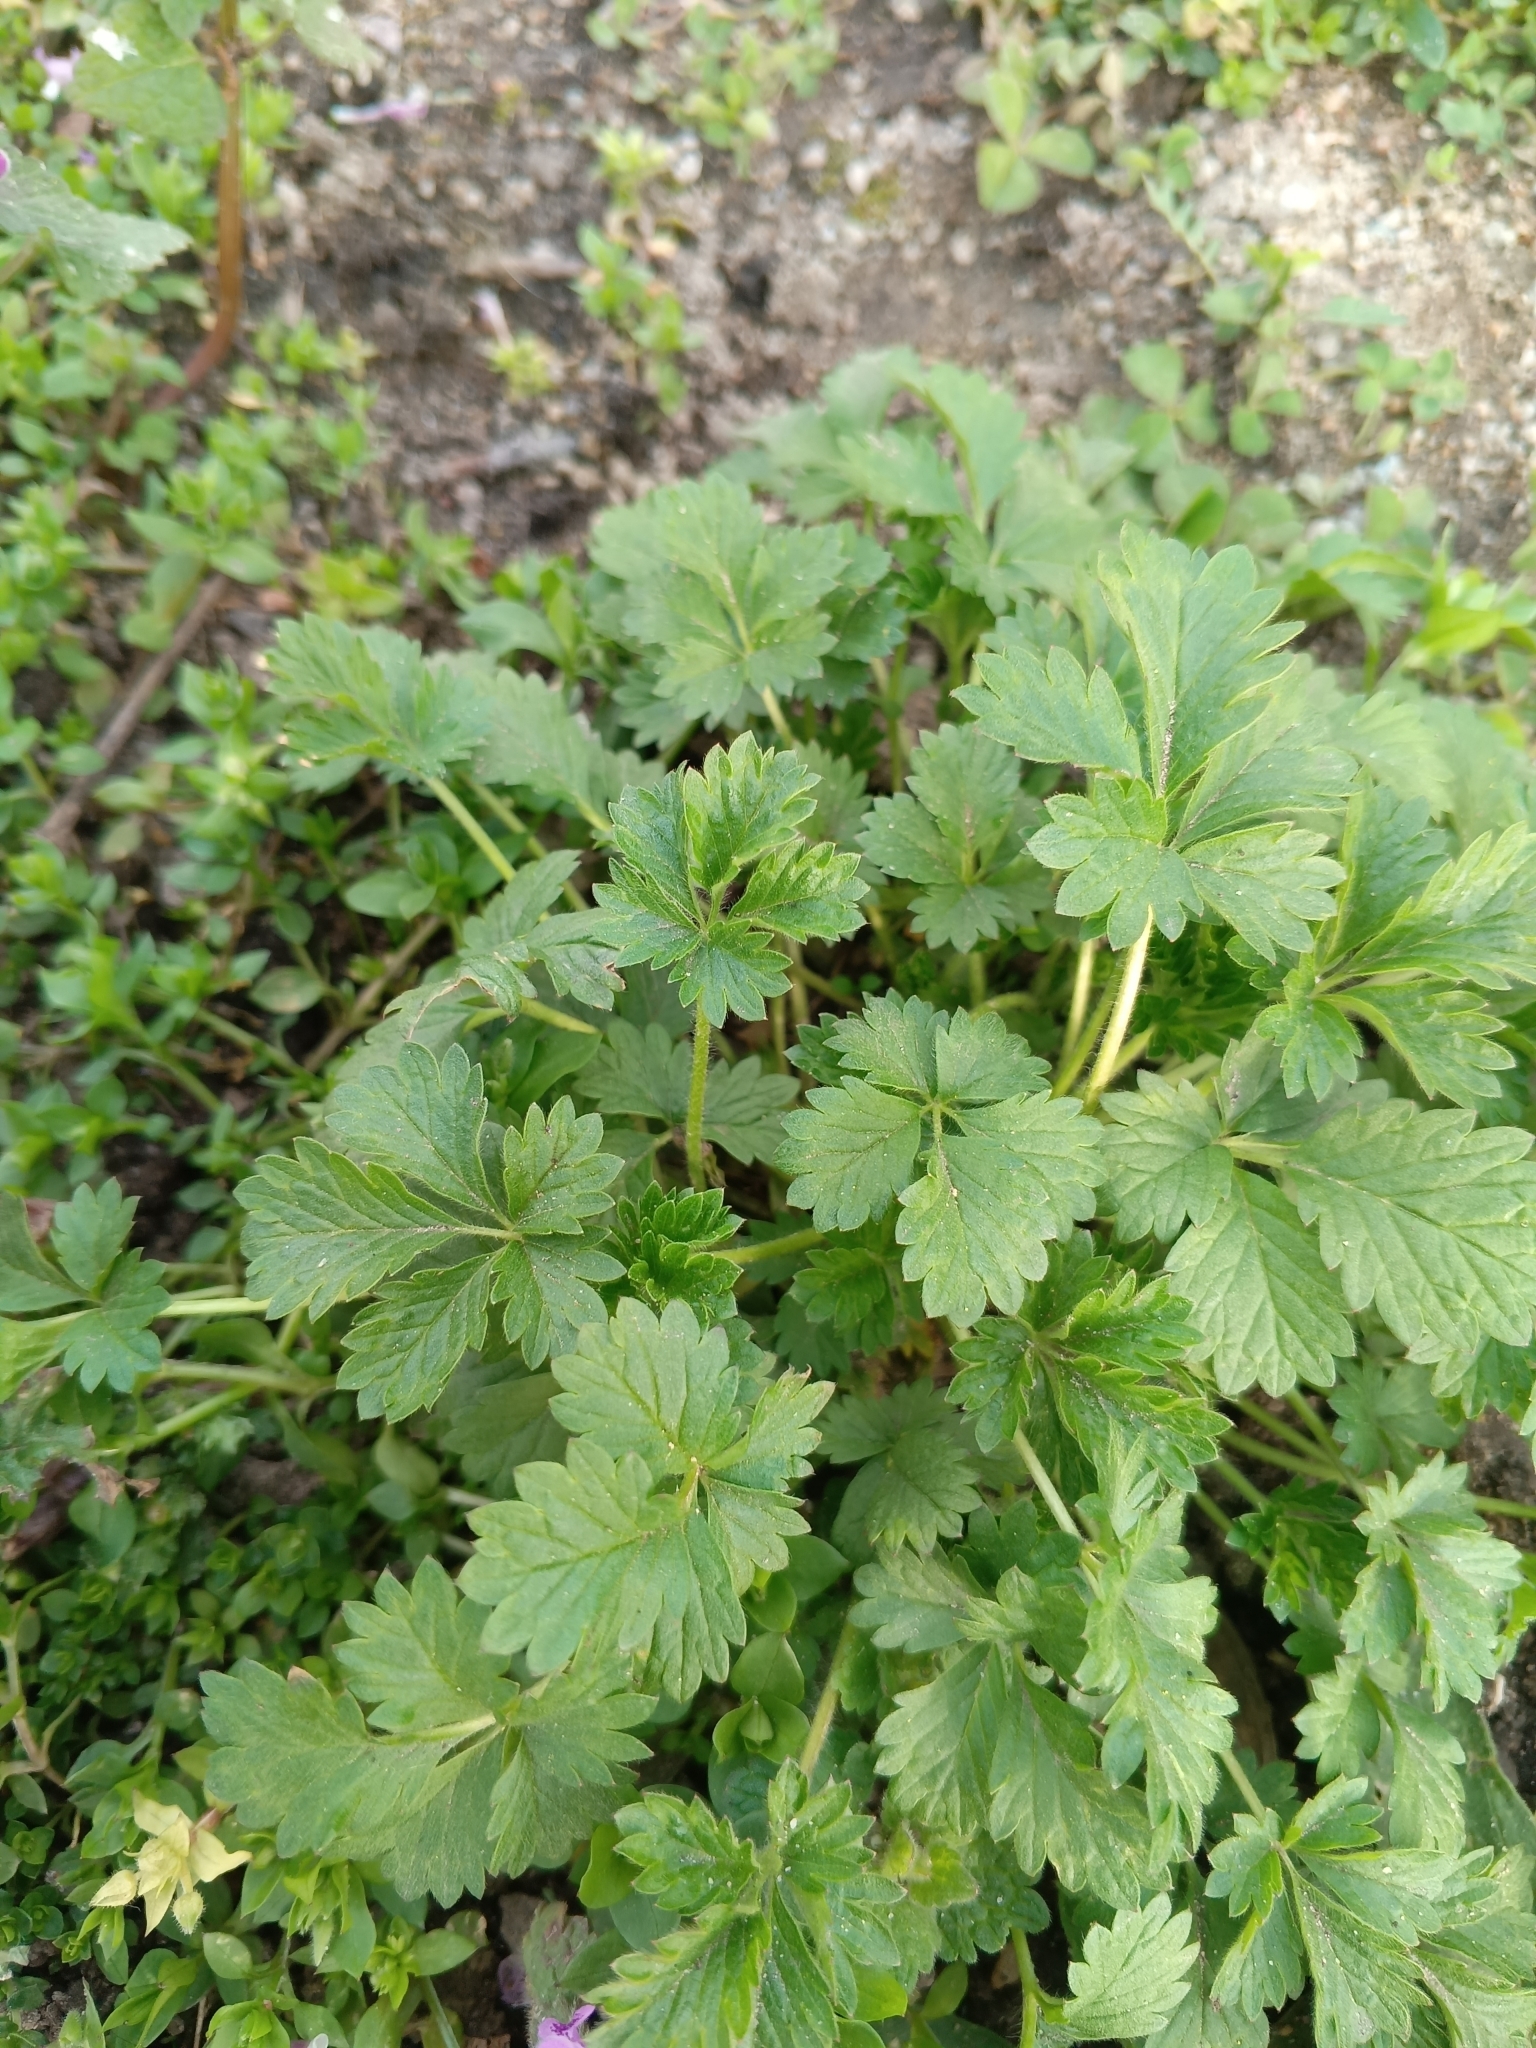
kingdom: Plantae
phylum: Tracheophyta
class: Magnoliopsida
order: Rosales
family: Rosaceae
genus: Potentilla
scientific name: Potentilla intermedia
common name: Downy cinquefoil
